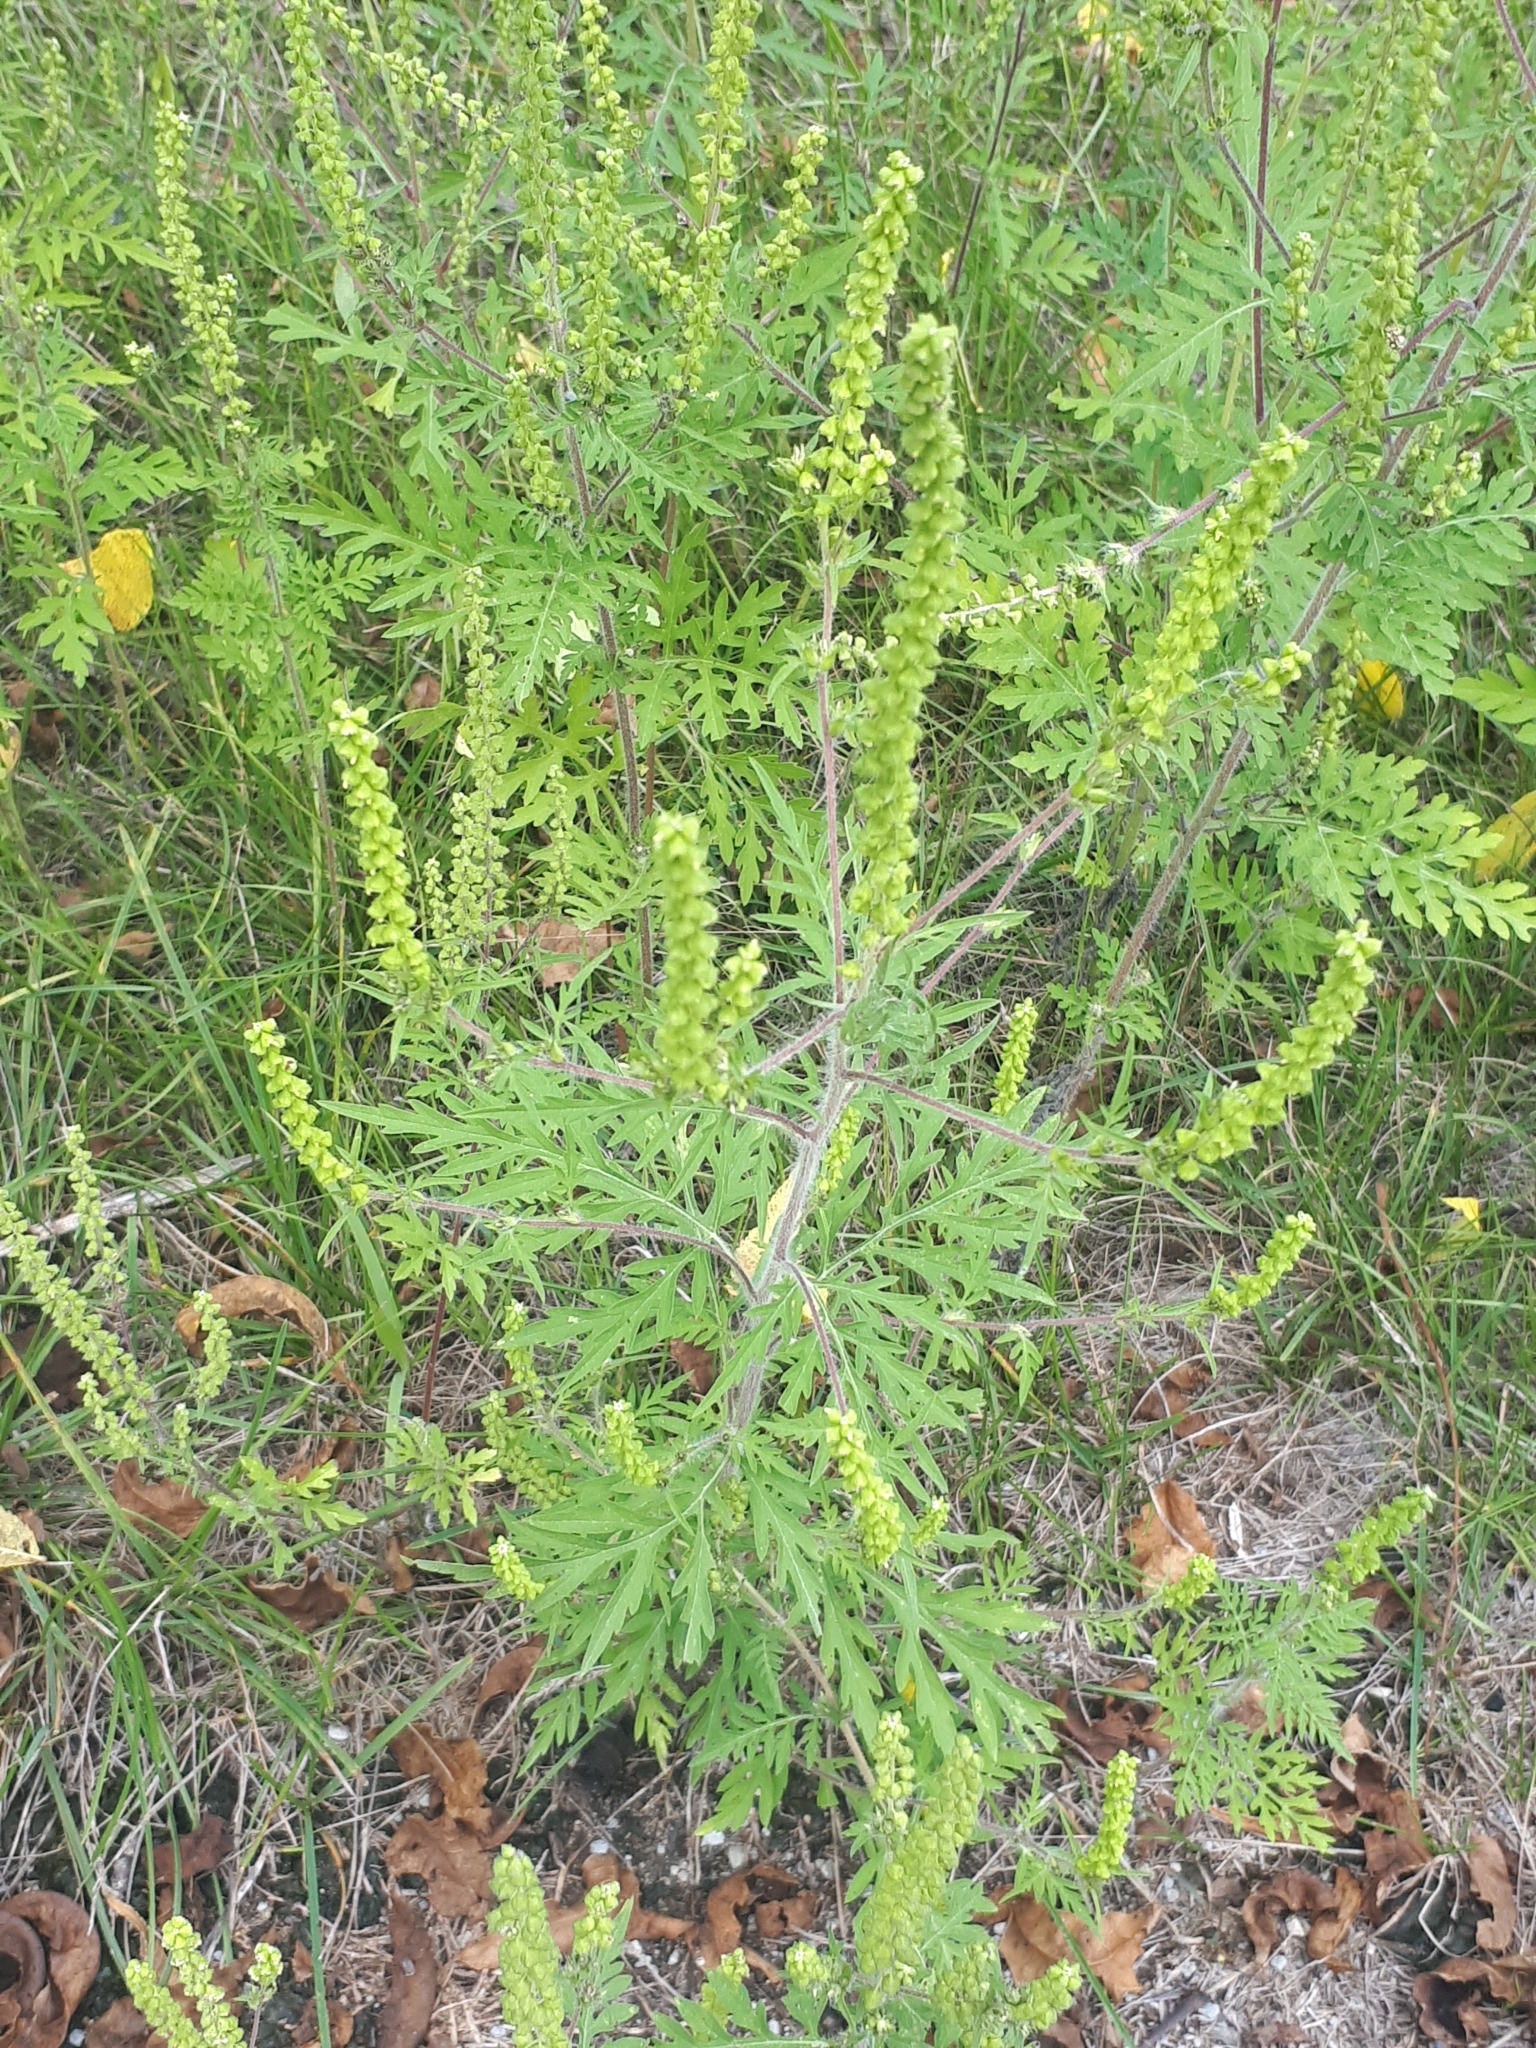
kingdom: Plantae
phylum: Tracheophyta
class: Magnoliopsida
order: Asterales
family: Asteraceae
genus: Ambrosia
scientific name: Ambrosia artemisiifolia
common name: Annual ragweed
